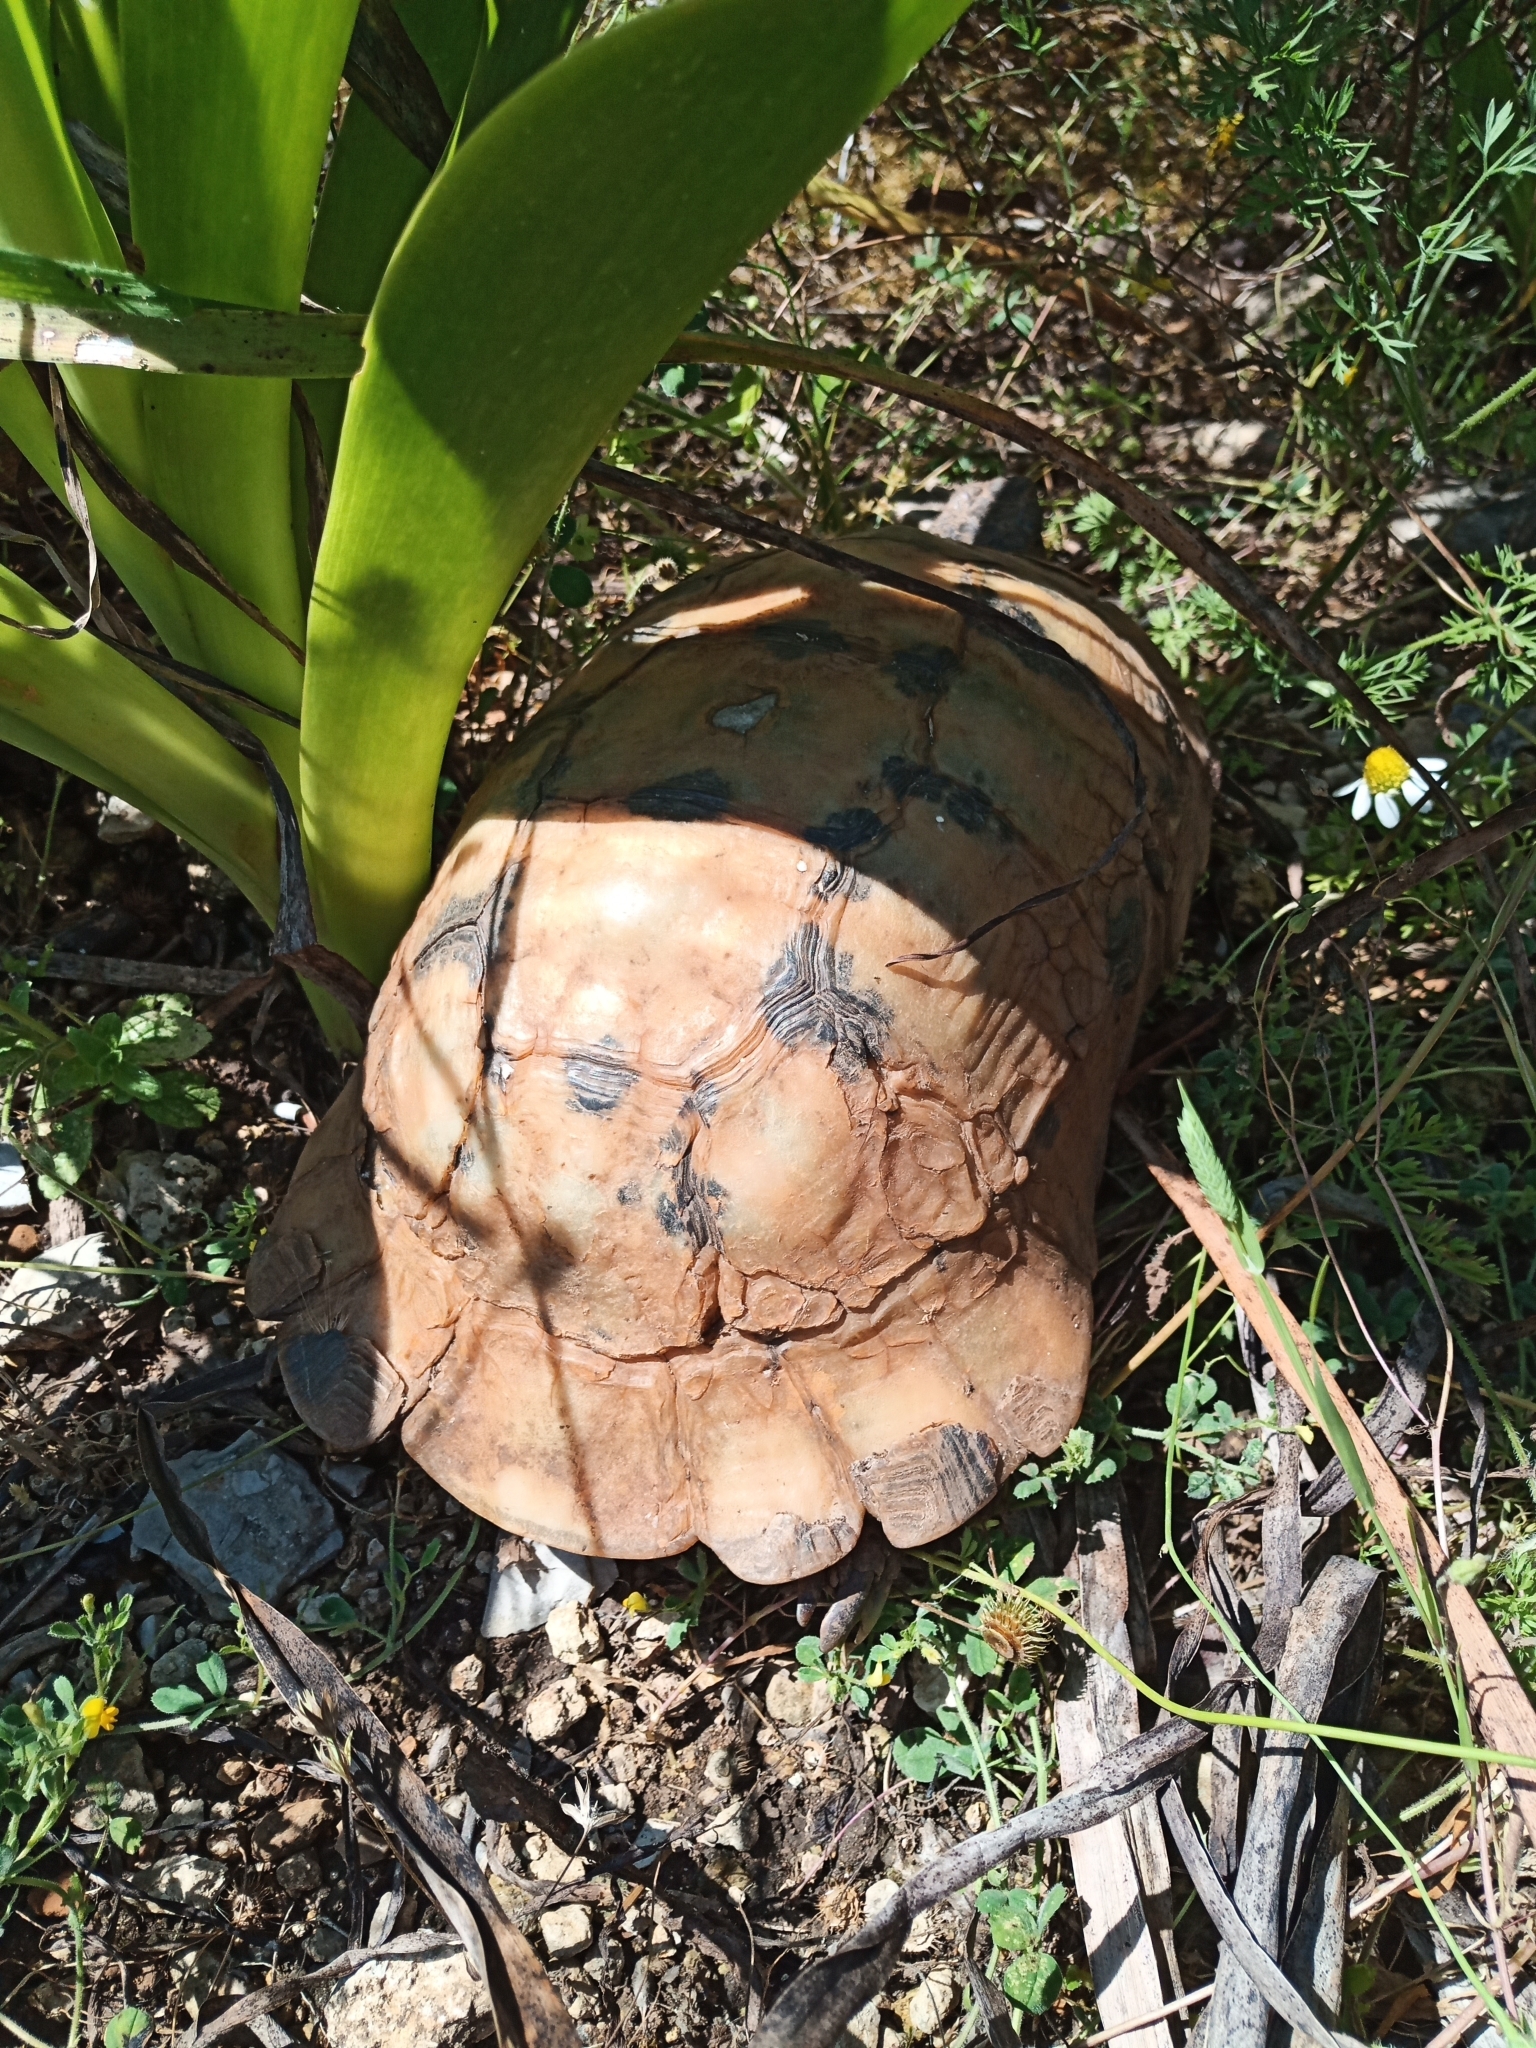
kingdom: Animalia
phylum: Chordata
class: Testudines
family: Testudinidae
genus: Testudo
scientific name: Testudo marginata
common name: Marginated tortoise
